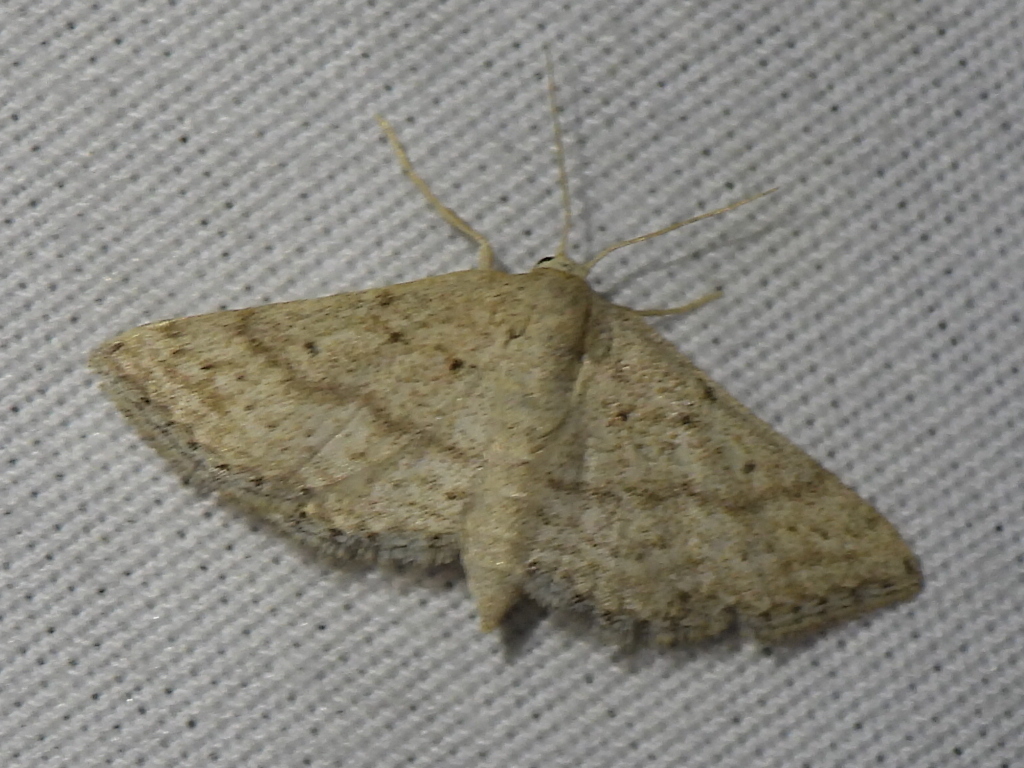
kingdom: Animalia
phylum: Arthropoda
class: Insecta
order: Lepidoptera
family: Geometridae
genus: Lobocleta
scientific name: Lobocleta ossularia
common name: Drab brown wave
